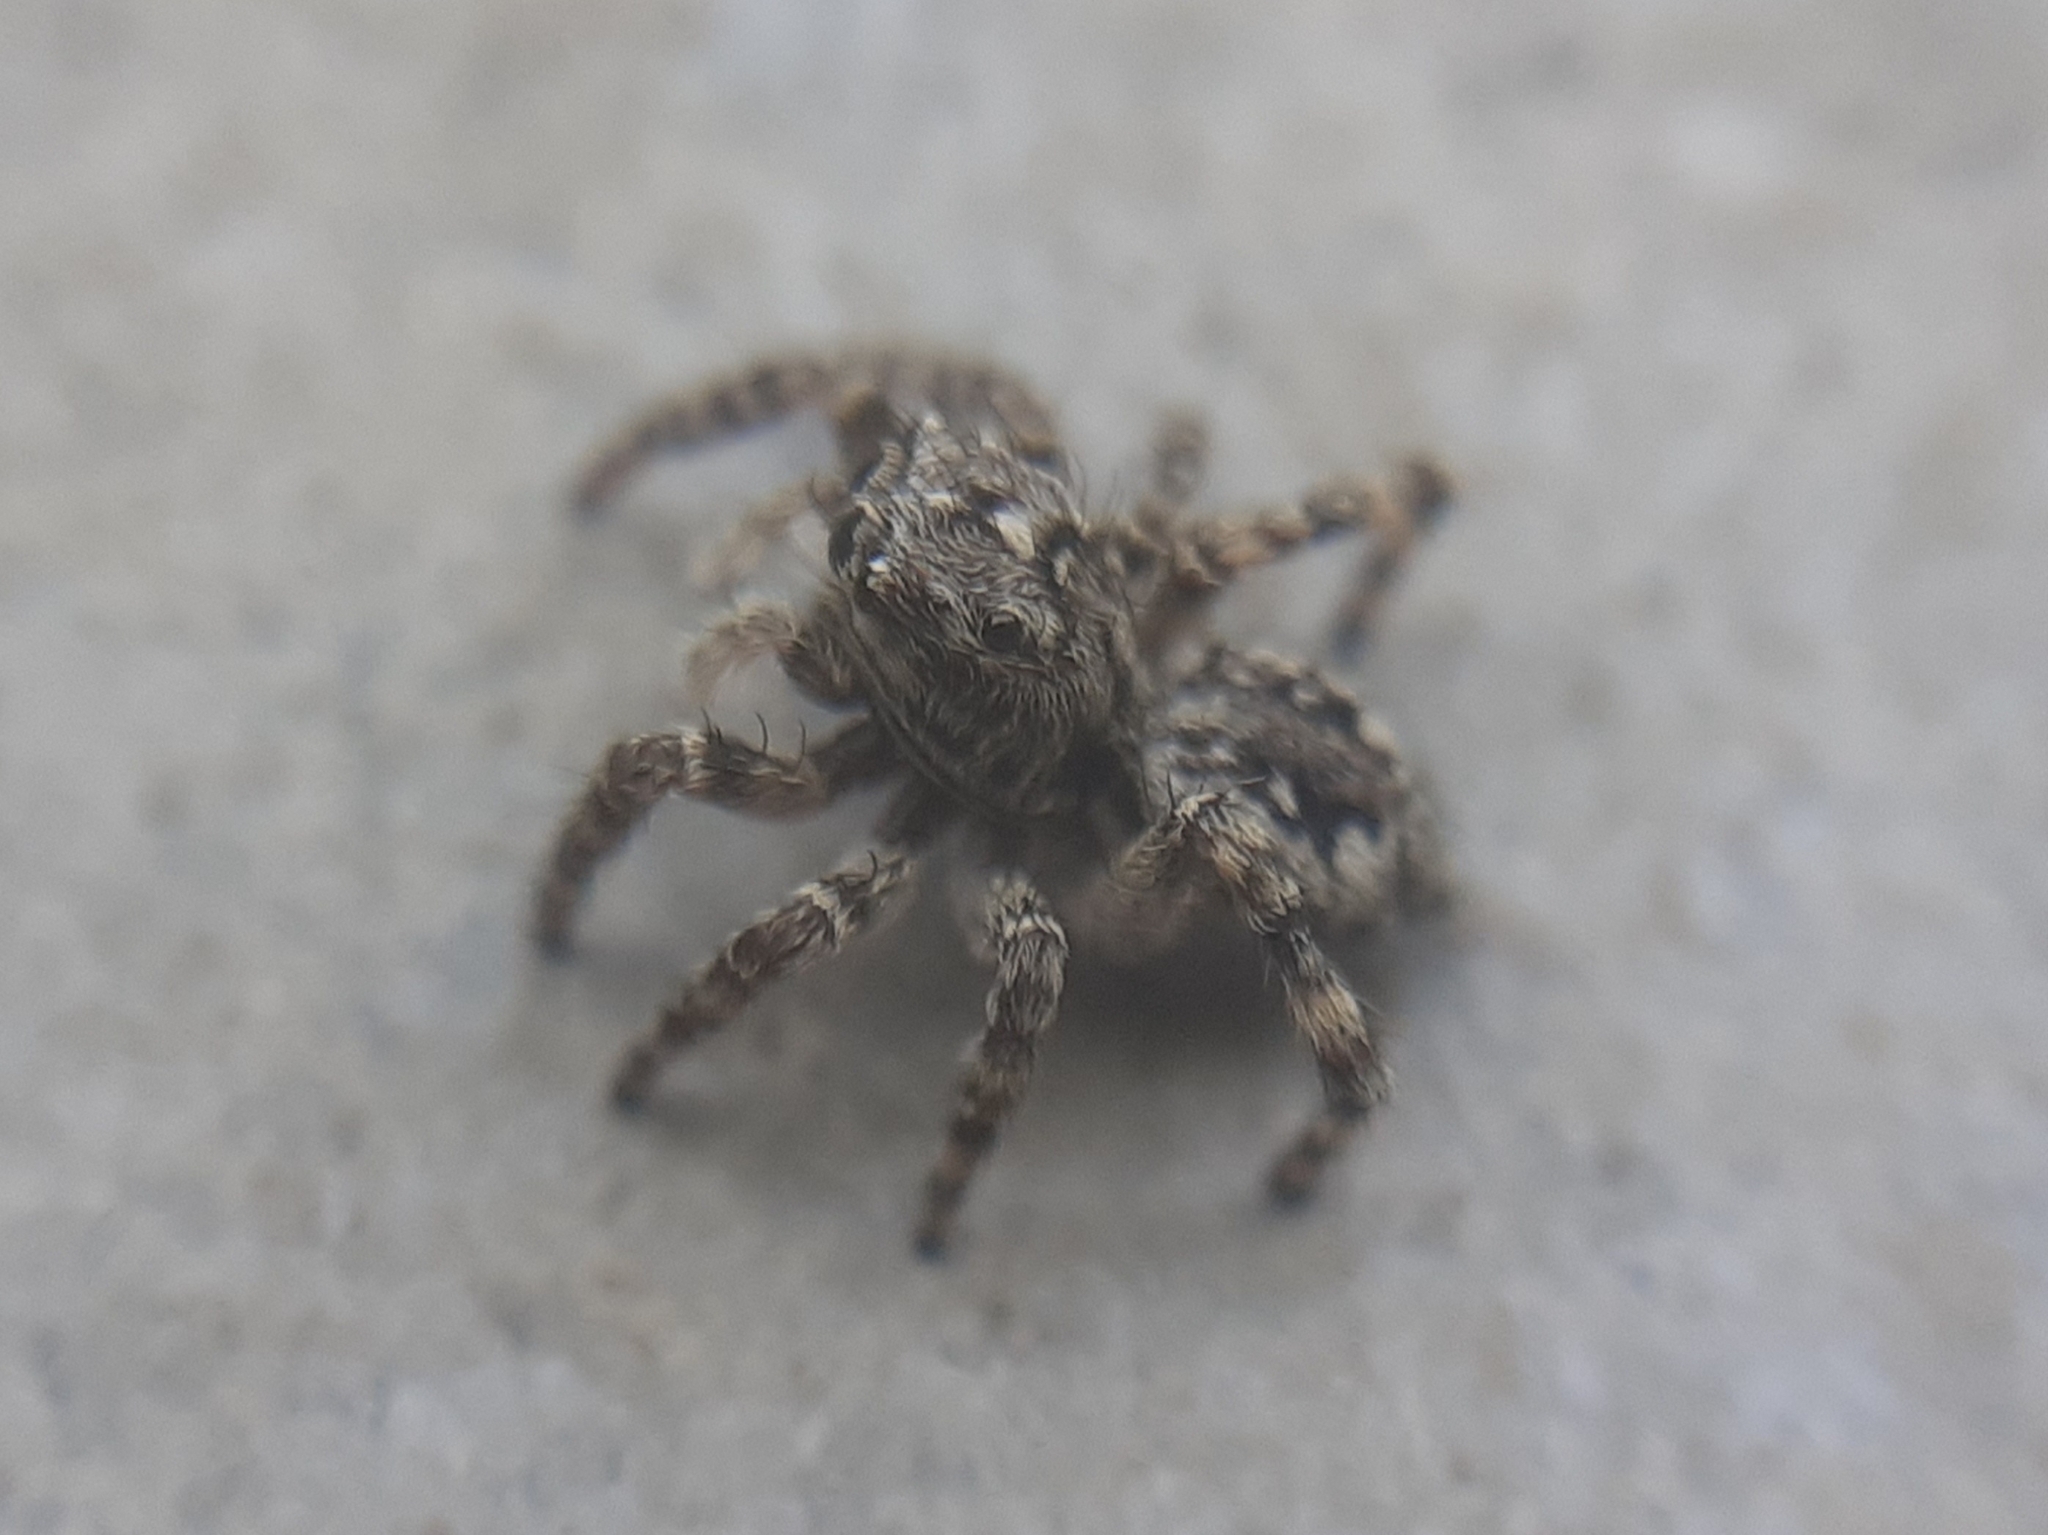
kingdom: Animalia
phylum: Arthropoda
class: Arachnida
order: Araneae
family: Salticidae
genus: Attulus
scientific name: Attulus pubescens
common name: Jumping spider
